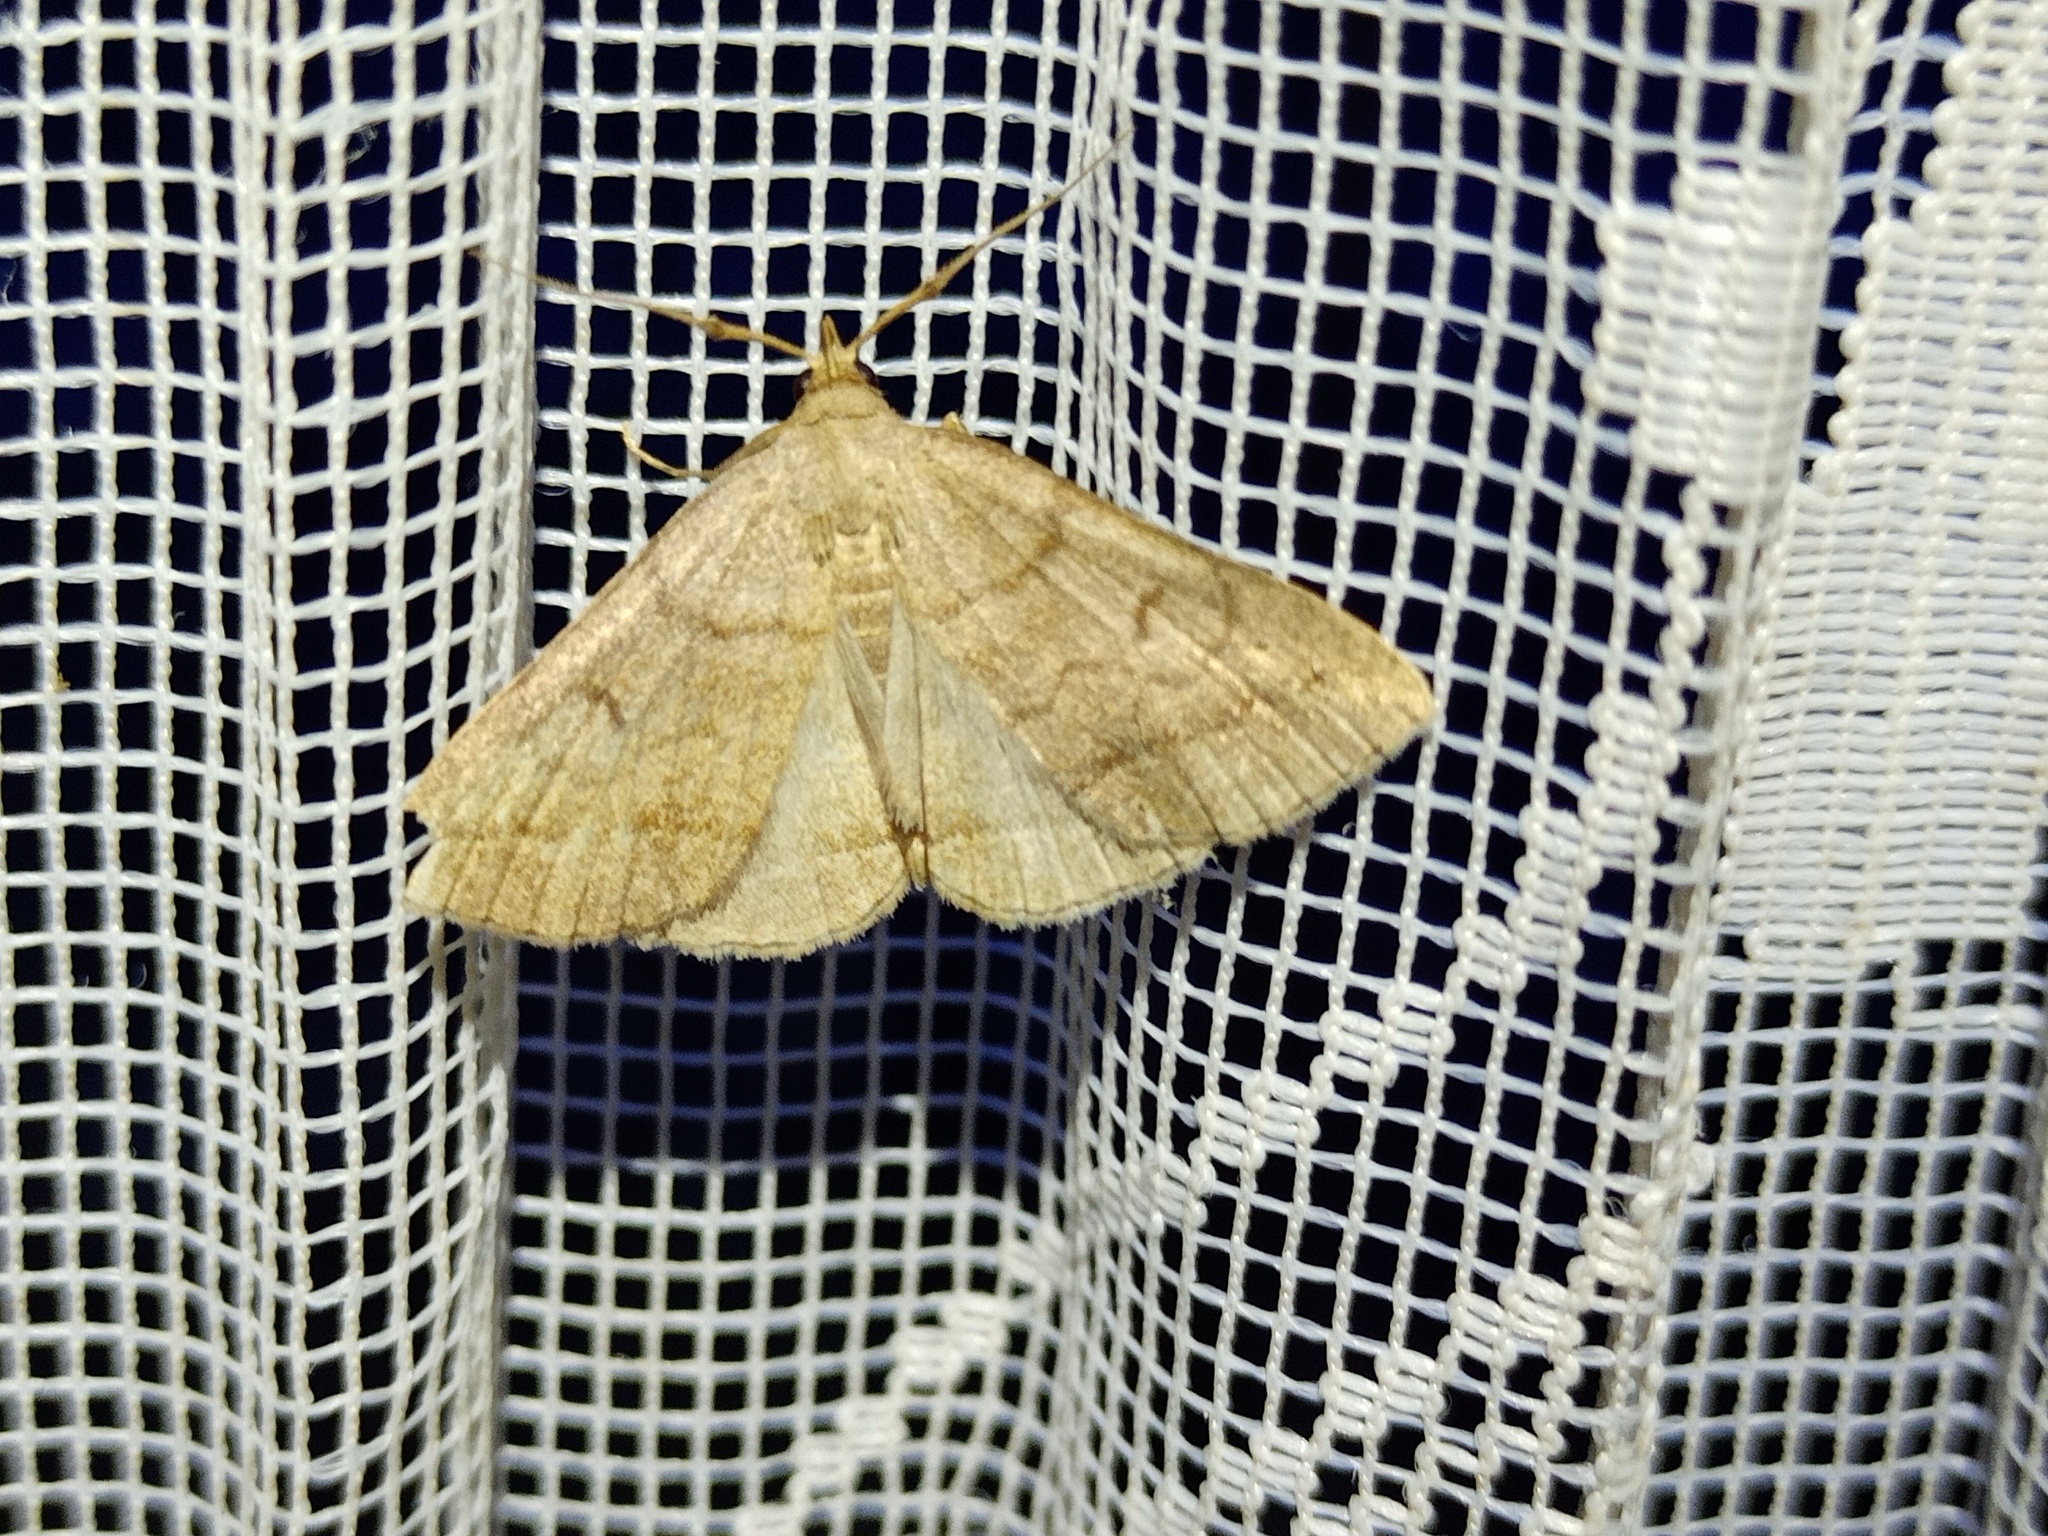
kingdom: Animalia
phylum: Arthropoda
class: Insecta
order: Lepidoptera
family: Erebidae
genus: Zanclognatha
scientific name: Zanclognatha lunalis
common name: Jubilee fan-foot
